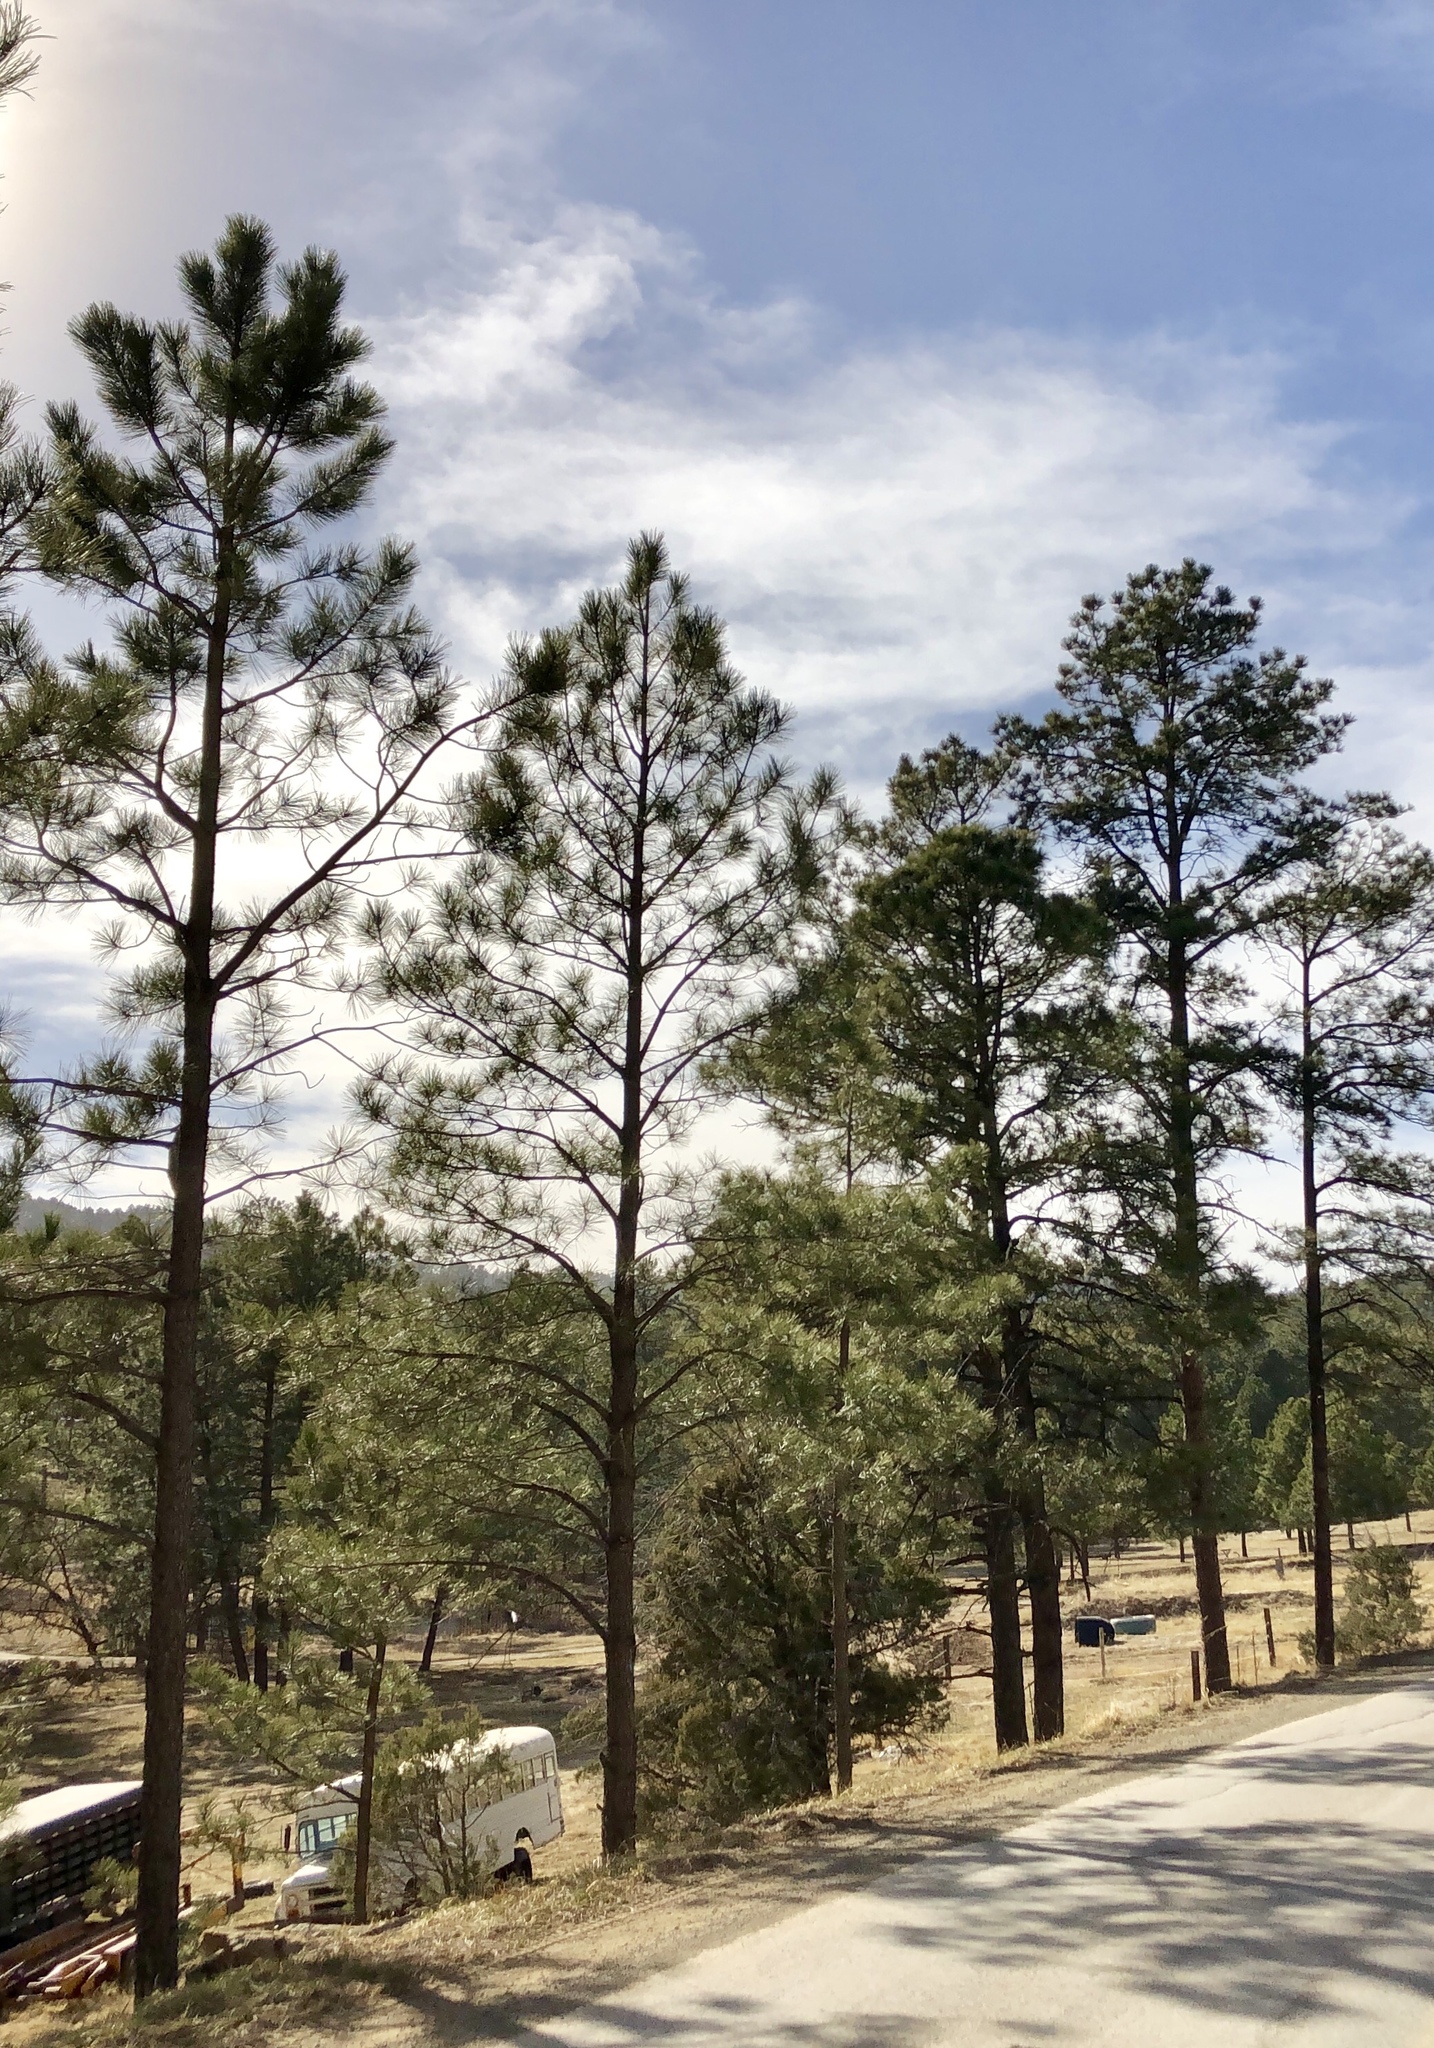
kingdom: Plantae
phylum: Tracheophyta
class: Pinopsida
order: Pinales
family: Pinaceae
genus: Pinus
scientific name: Pinus ponderosa
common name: Western yellow-pine
